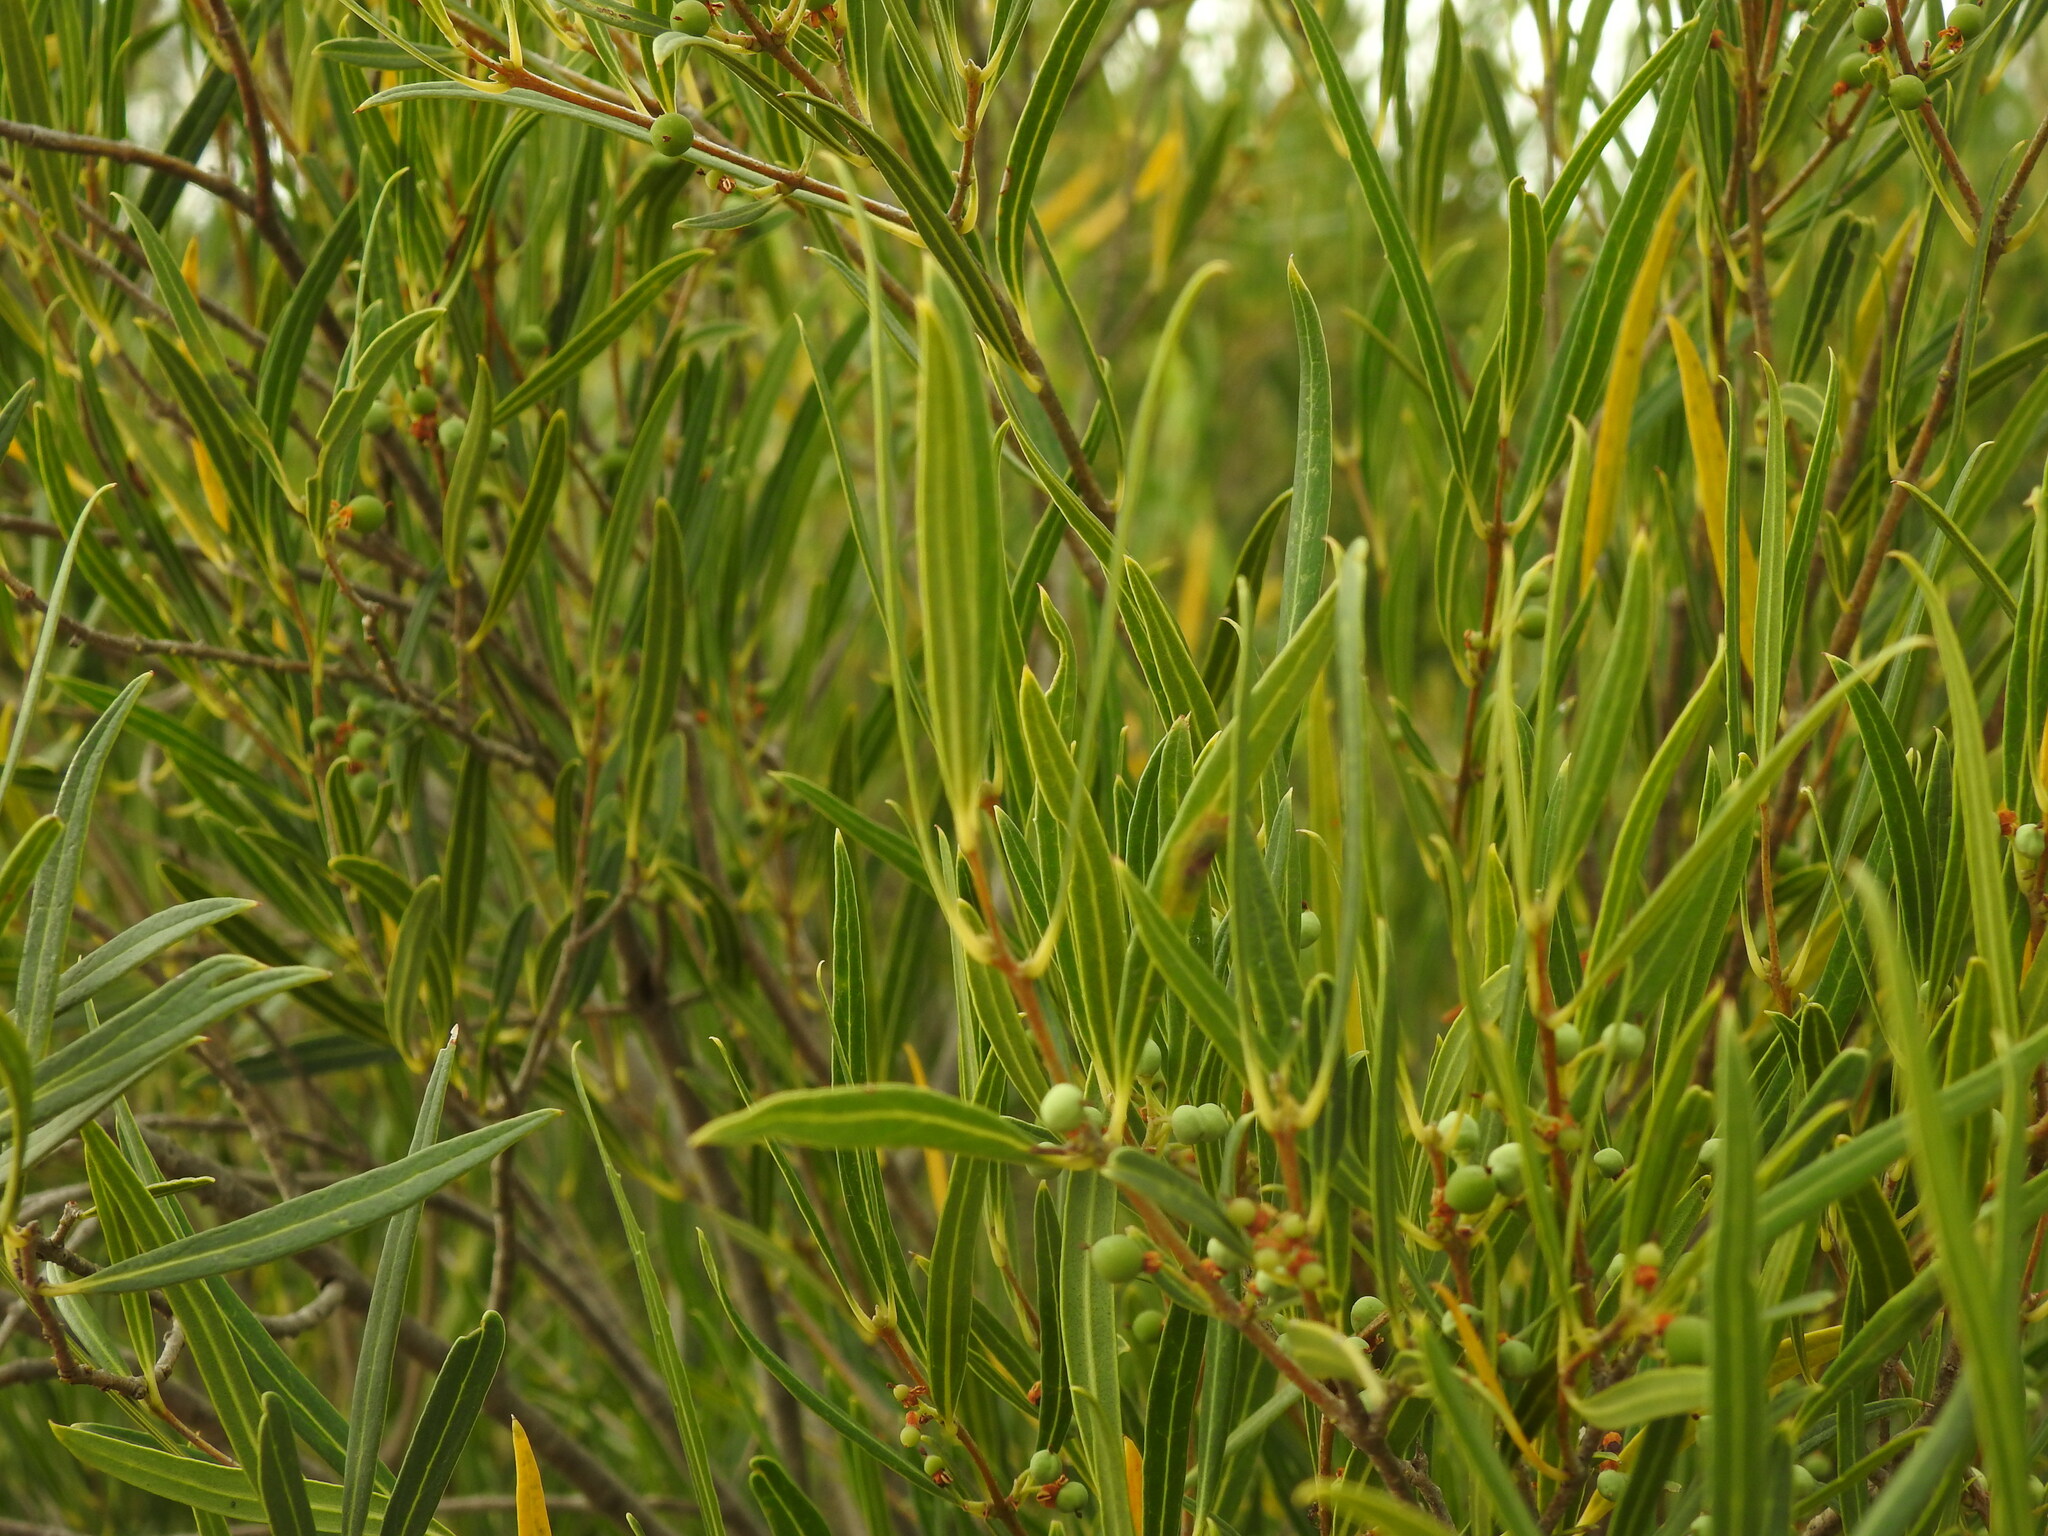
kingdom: Plantae
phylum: Tracheophyta
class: Magnoliopsida
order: Lamiales
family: Oleaceae
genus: Phillyrea
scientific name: Phillyrea angustifolia
